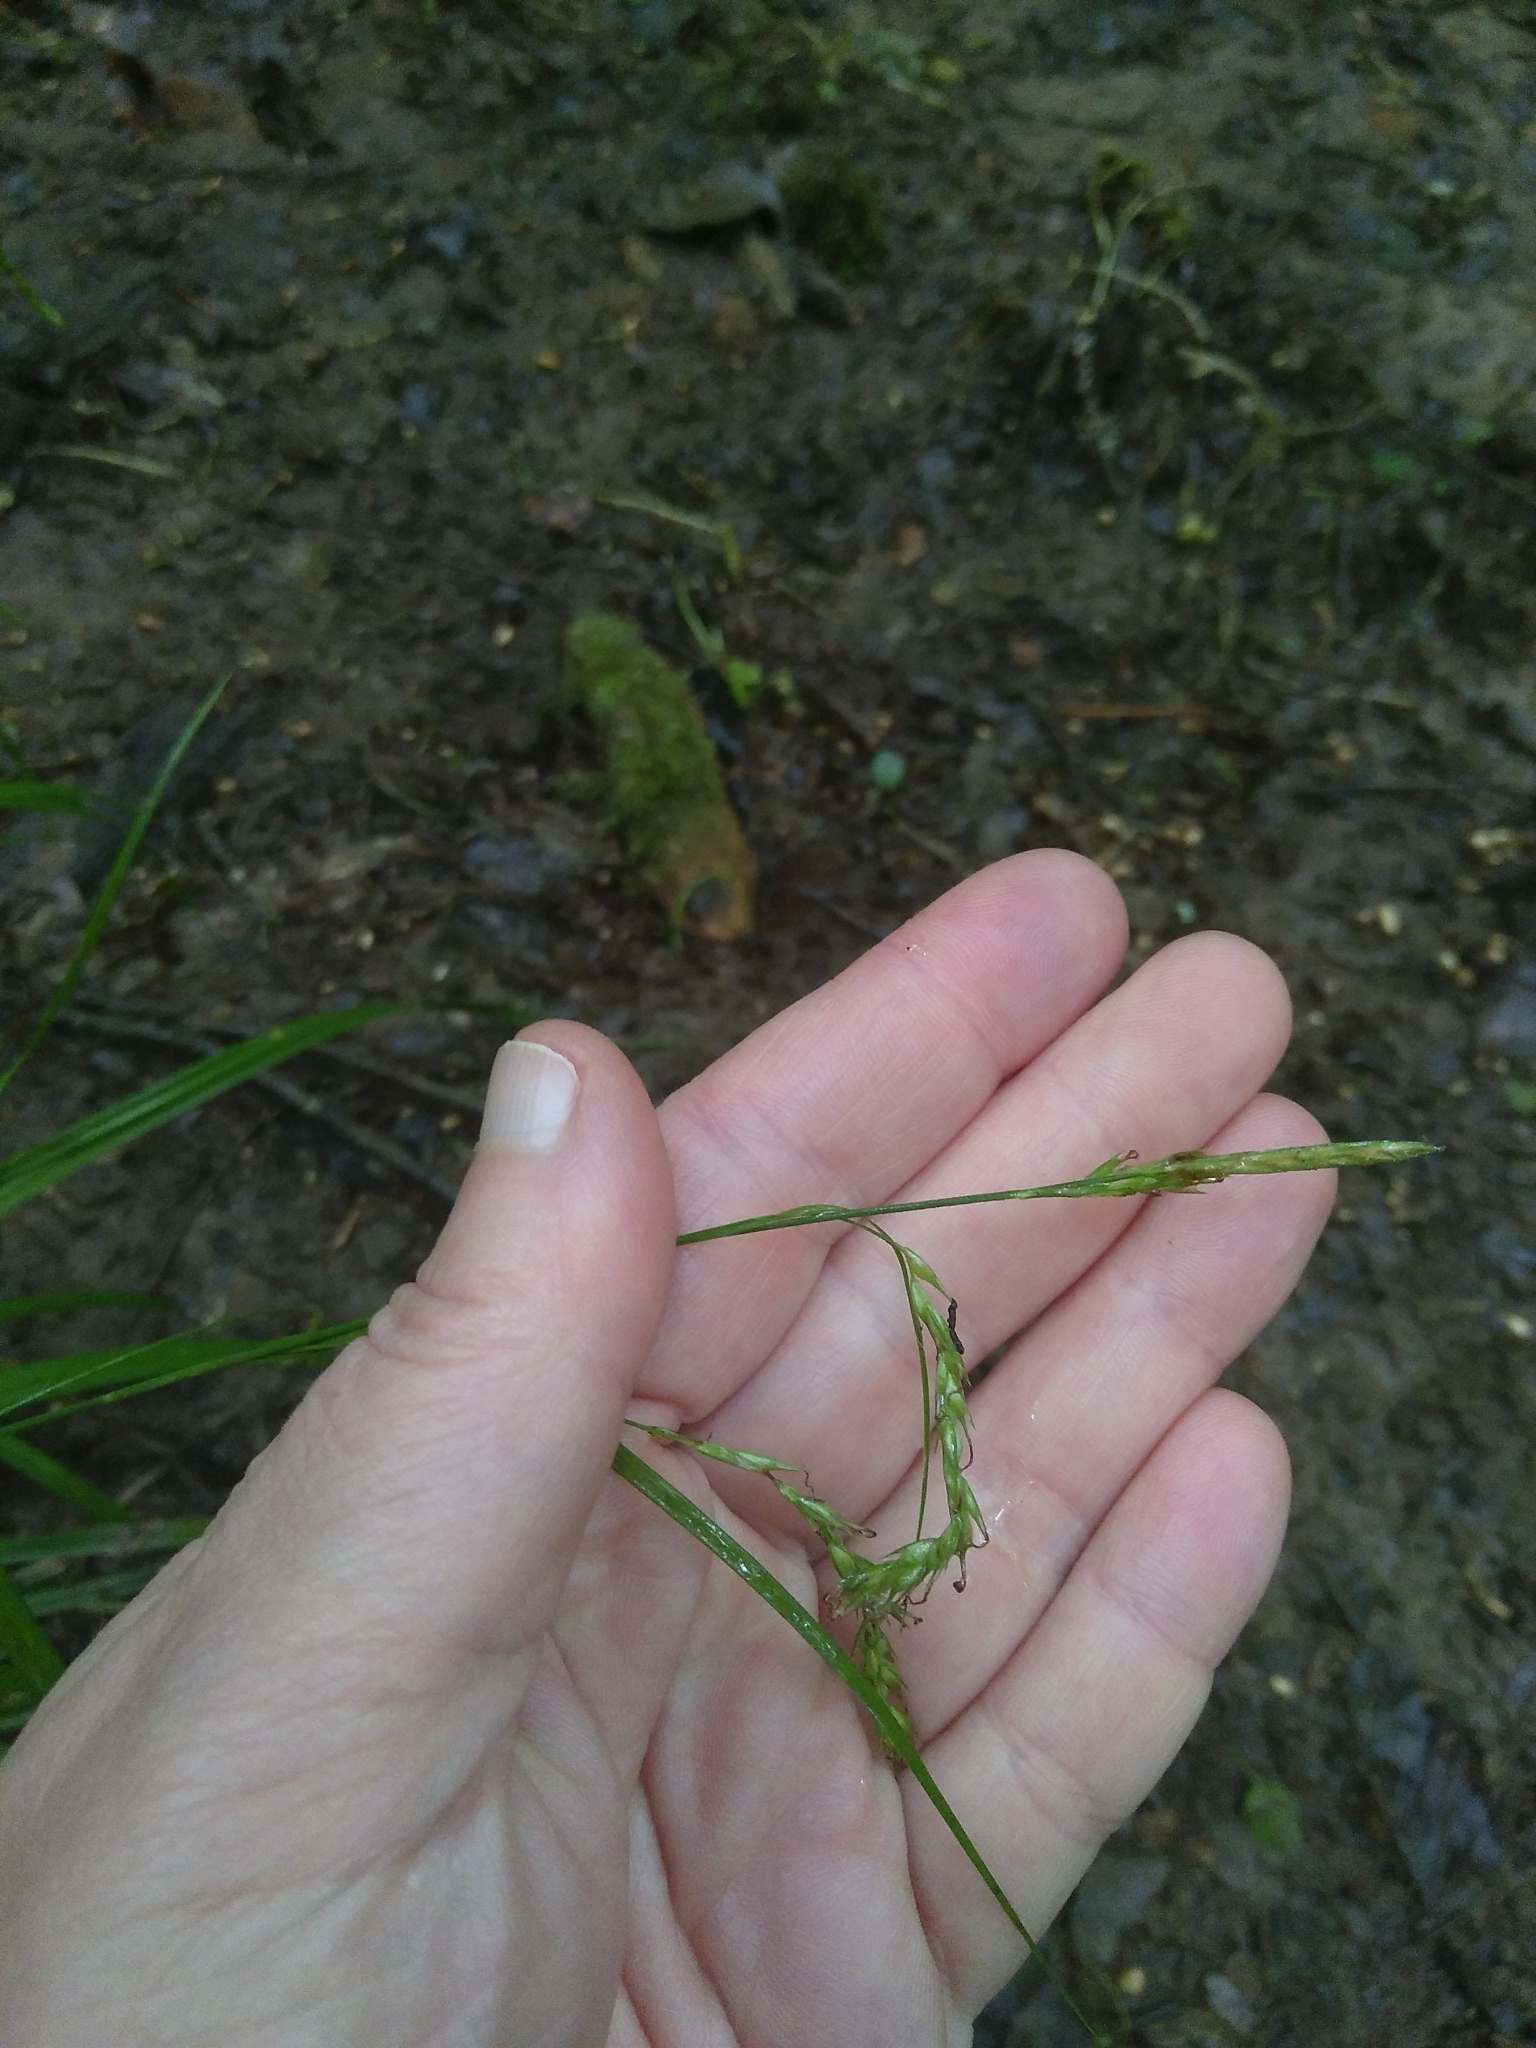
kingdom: Plantae
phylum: Tracheophyta
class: Liliopsida
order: Poales
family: Cyperaceae
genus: Carex
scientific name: Carex sylvatica
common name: Wood-sedge
